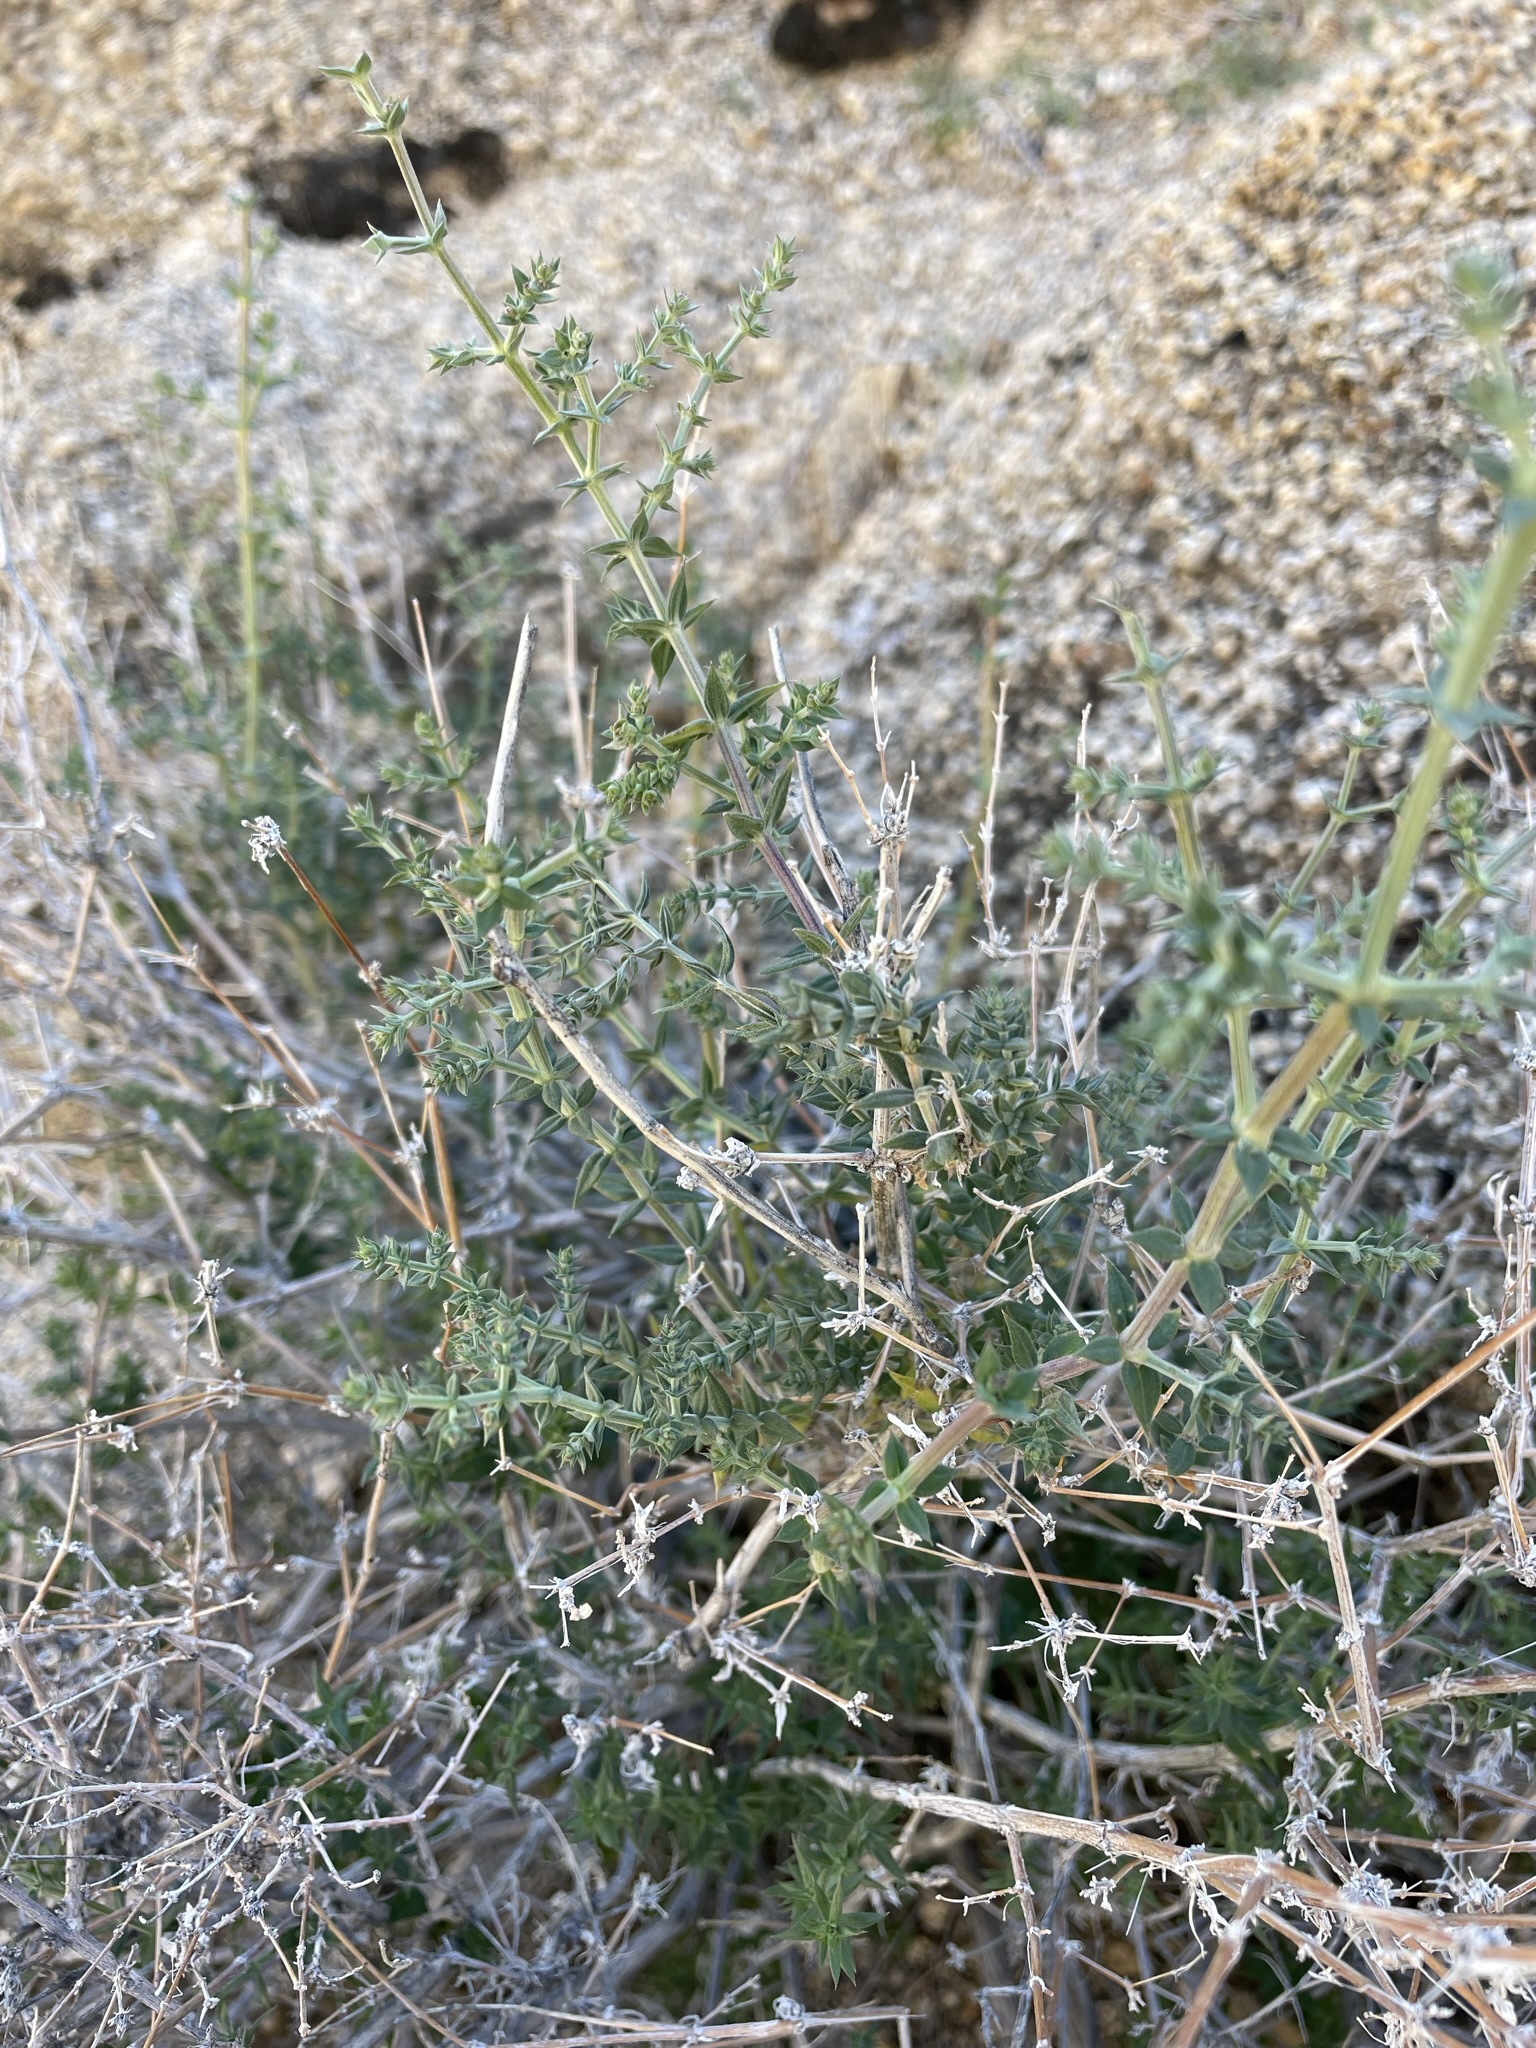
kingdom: Plantae
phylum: Tracheophyta
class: Magnoliopsida
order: Gentianales
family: Rubiaceae
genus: Galium
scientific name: Galium stellatum
